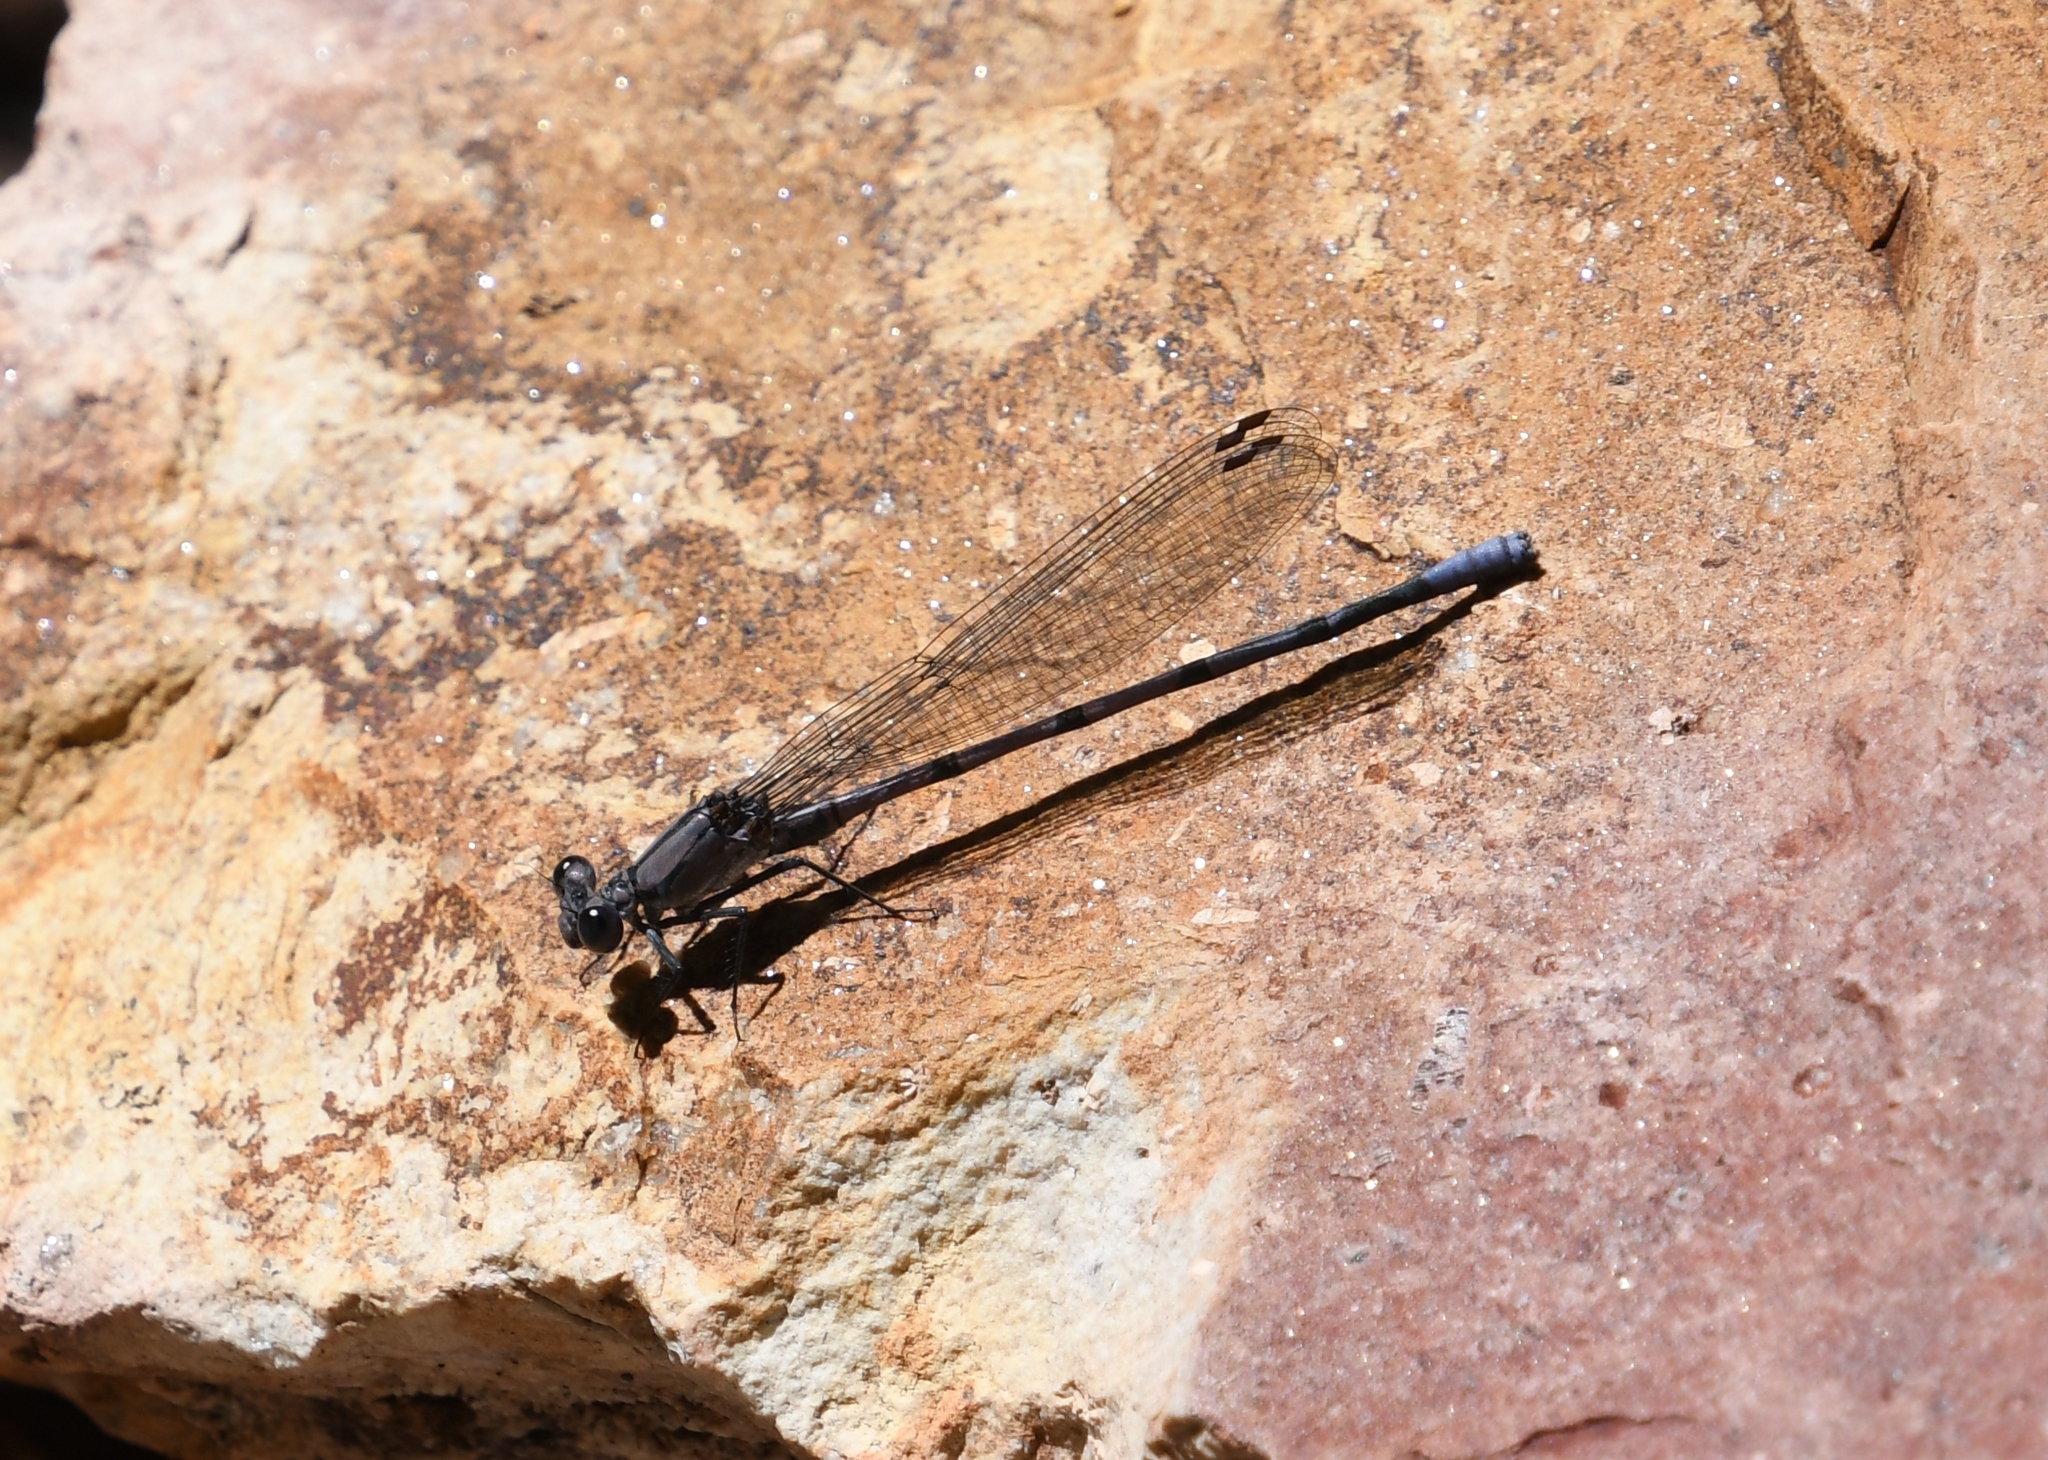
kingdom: Animalia
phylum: Arthropoda
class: Insecta
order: Odonata
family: Coenagrionidae
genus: Argia
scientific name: Argia tonto
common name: Tonto dancer
